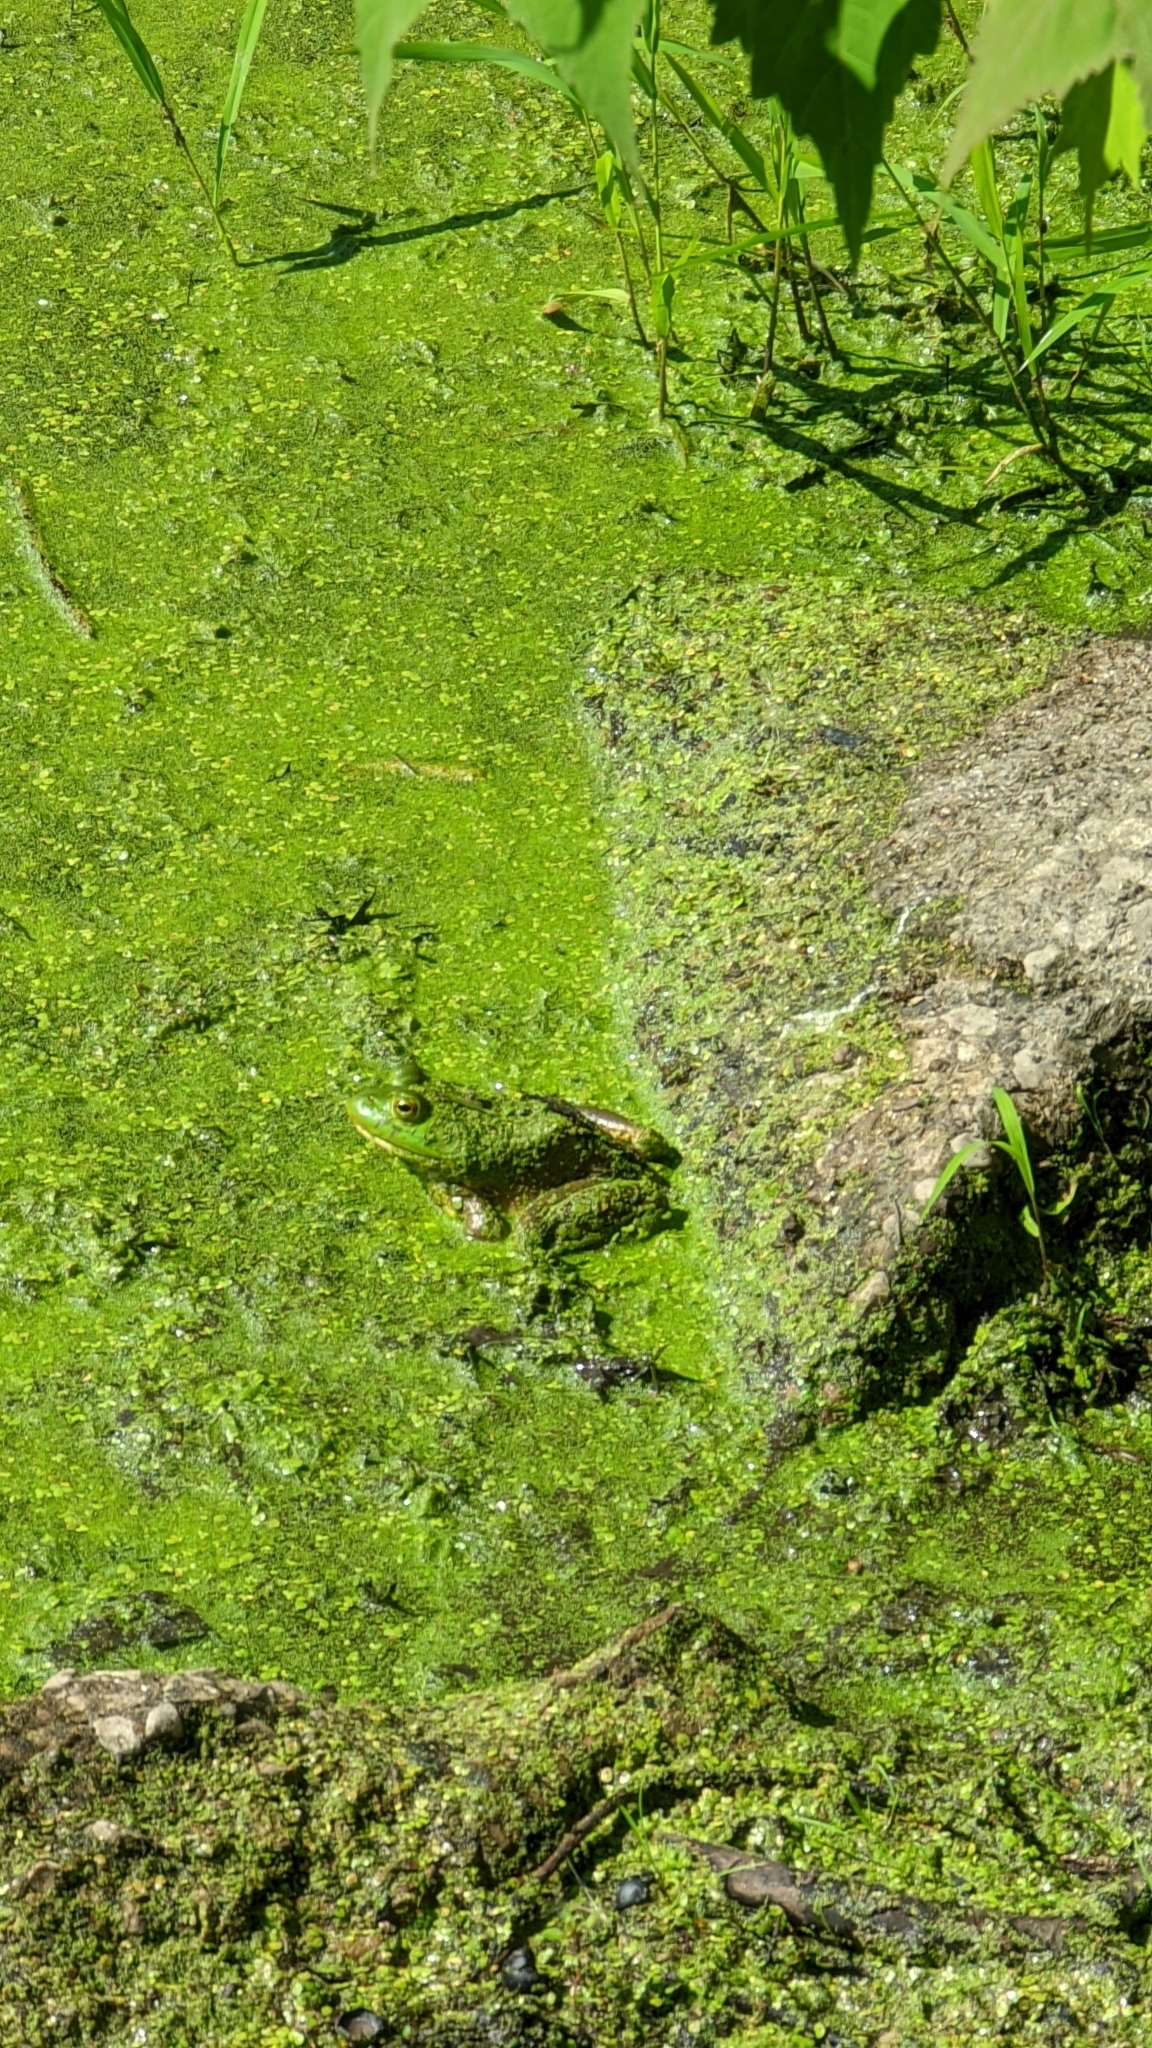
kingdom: Animalia
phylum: Chordata
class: Amphibia
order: Anura
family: Ranidae
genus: Lithobates
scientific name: Lithobates catesbeianus
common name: American bullfrog
